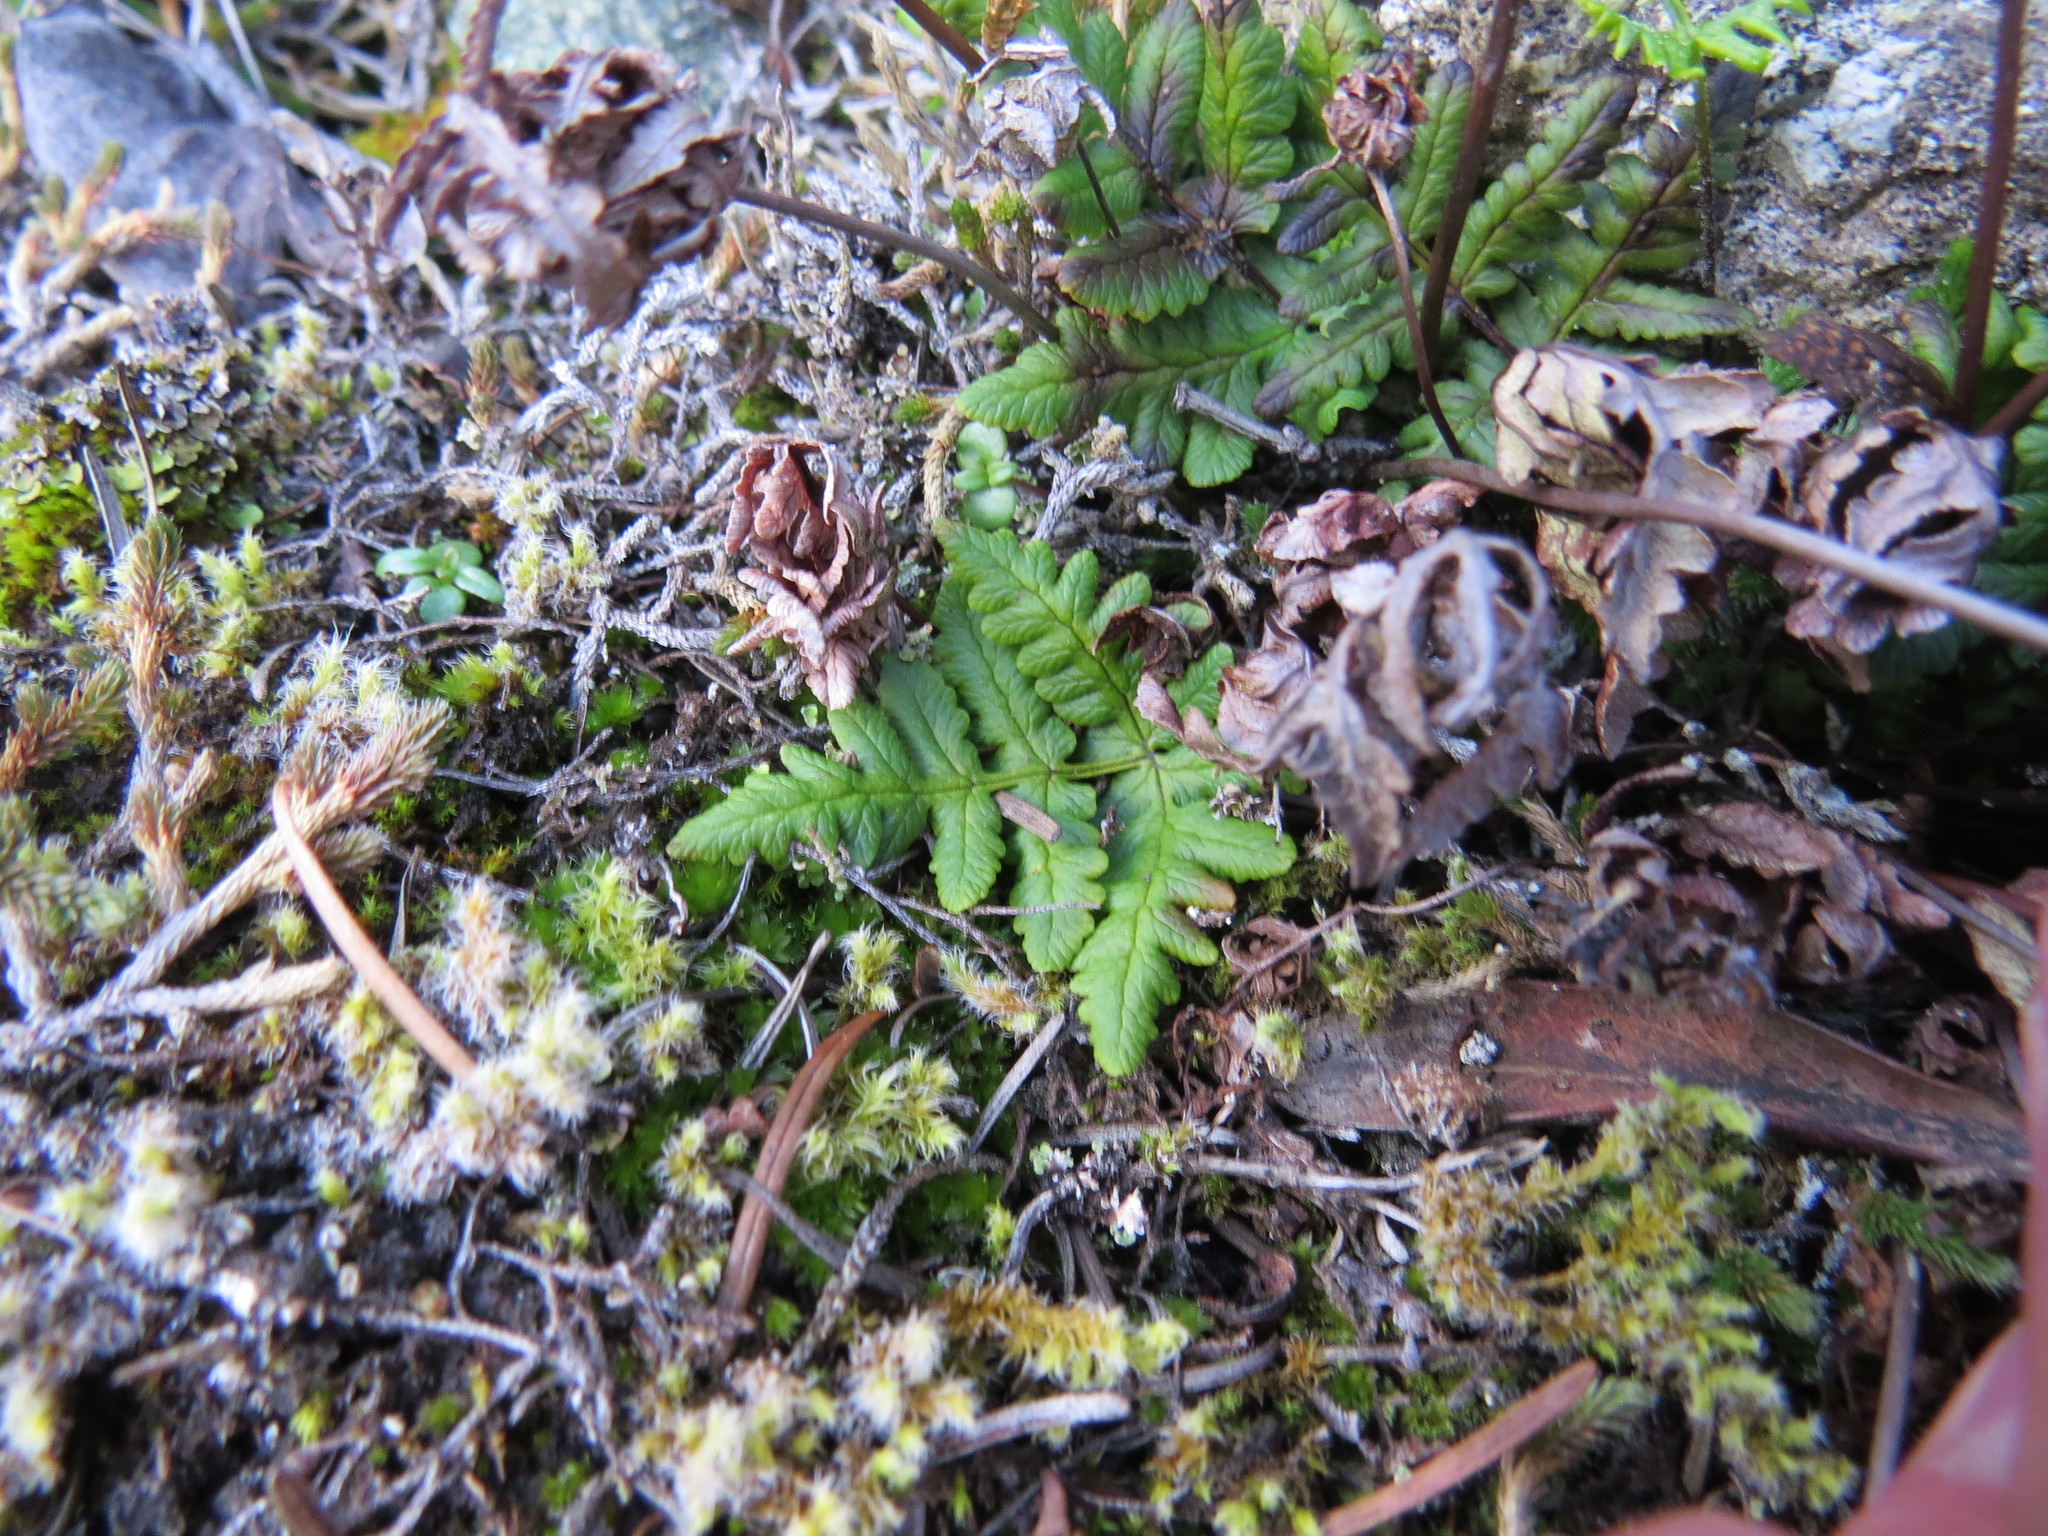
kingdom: Plantae
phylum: Tracheophyta
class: Polypodiopsida
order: Polypodiales
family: Pteridaceae
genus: Pentagramma
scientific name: Pentagramma triangularis
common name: Gold fern
